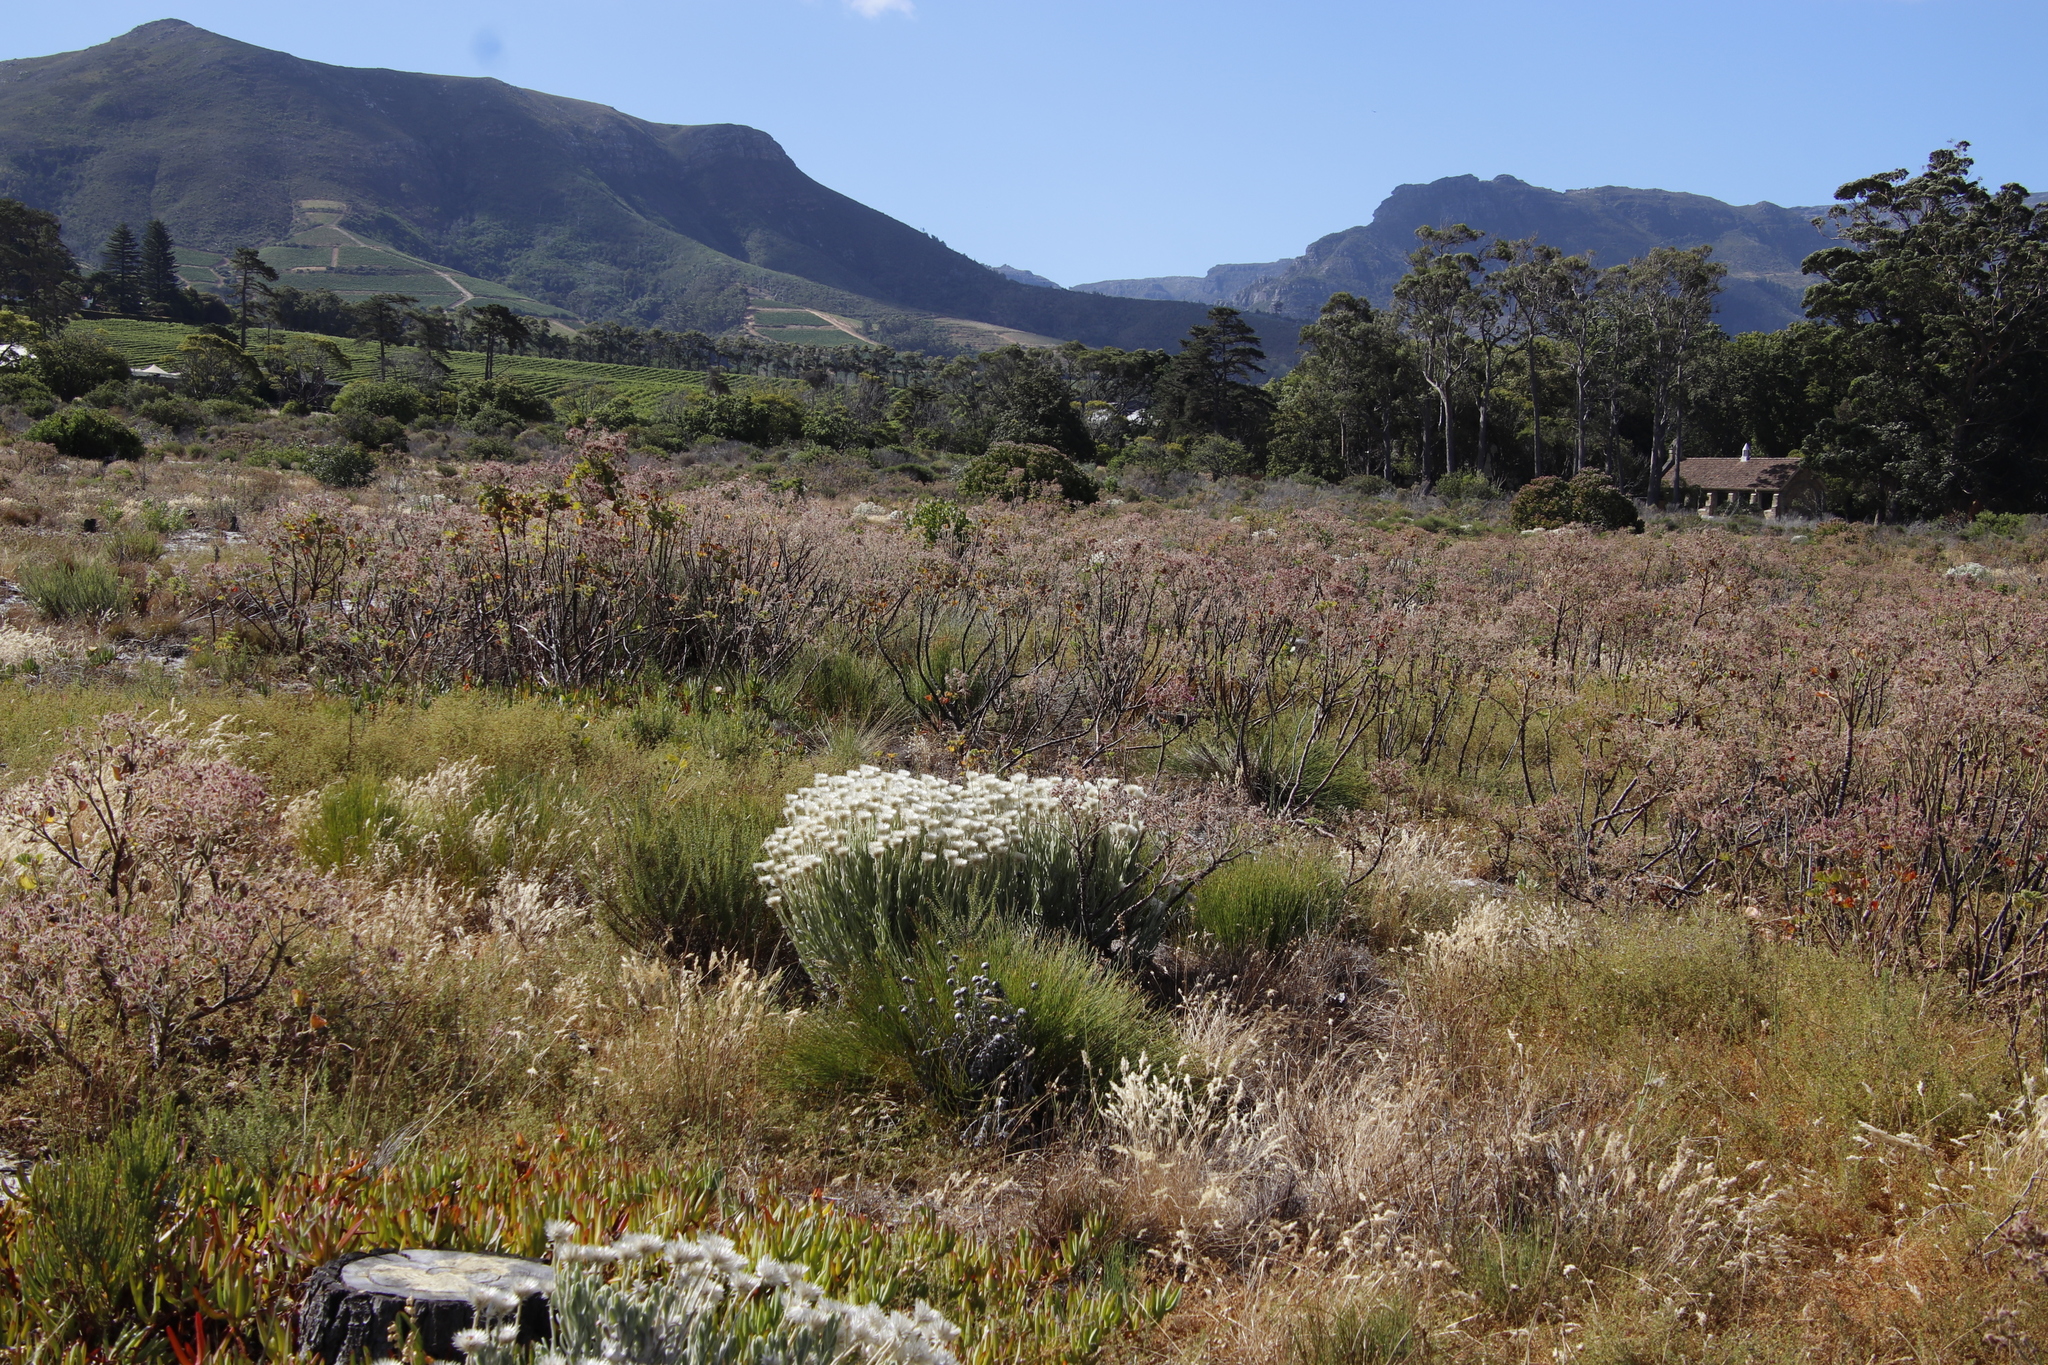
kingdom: Plantae
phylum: Tracheophyta
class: Magnoliopsida
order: Geraniales
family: Geraniaceae
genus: Pelargonium
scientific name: Pelargonium cucullatum
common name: Tree pelargonium
